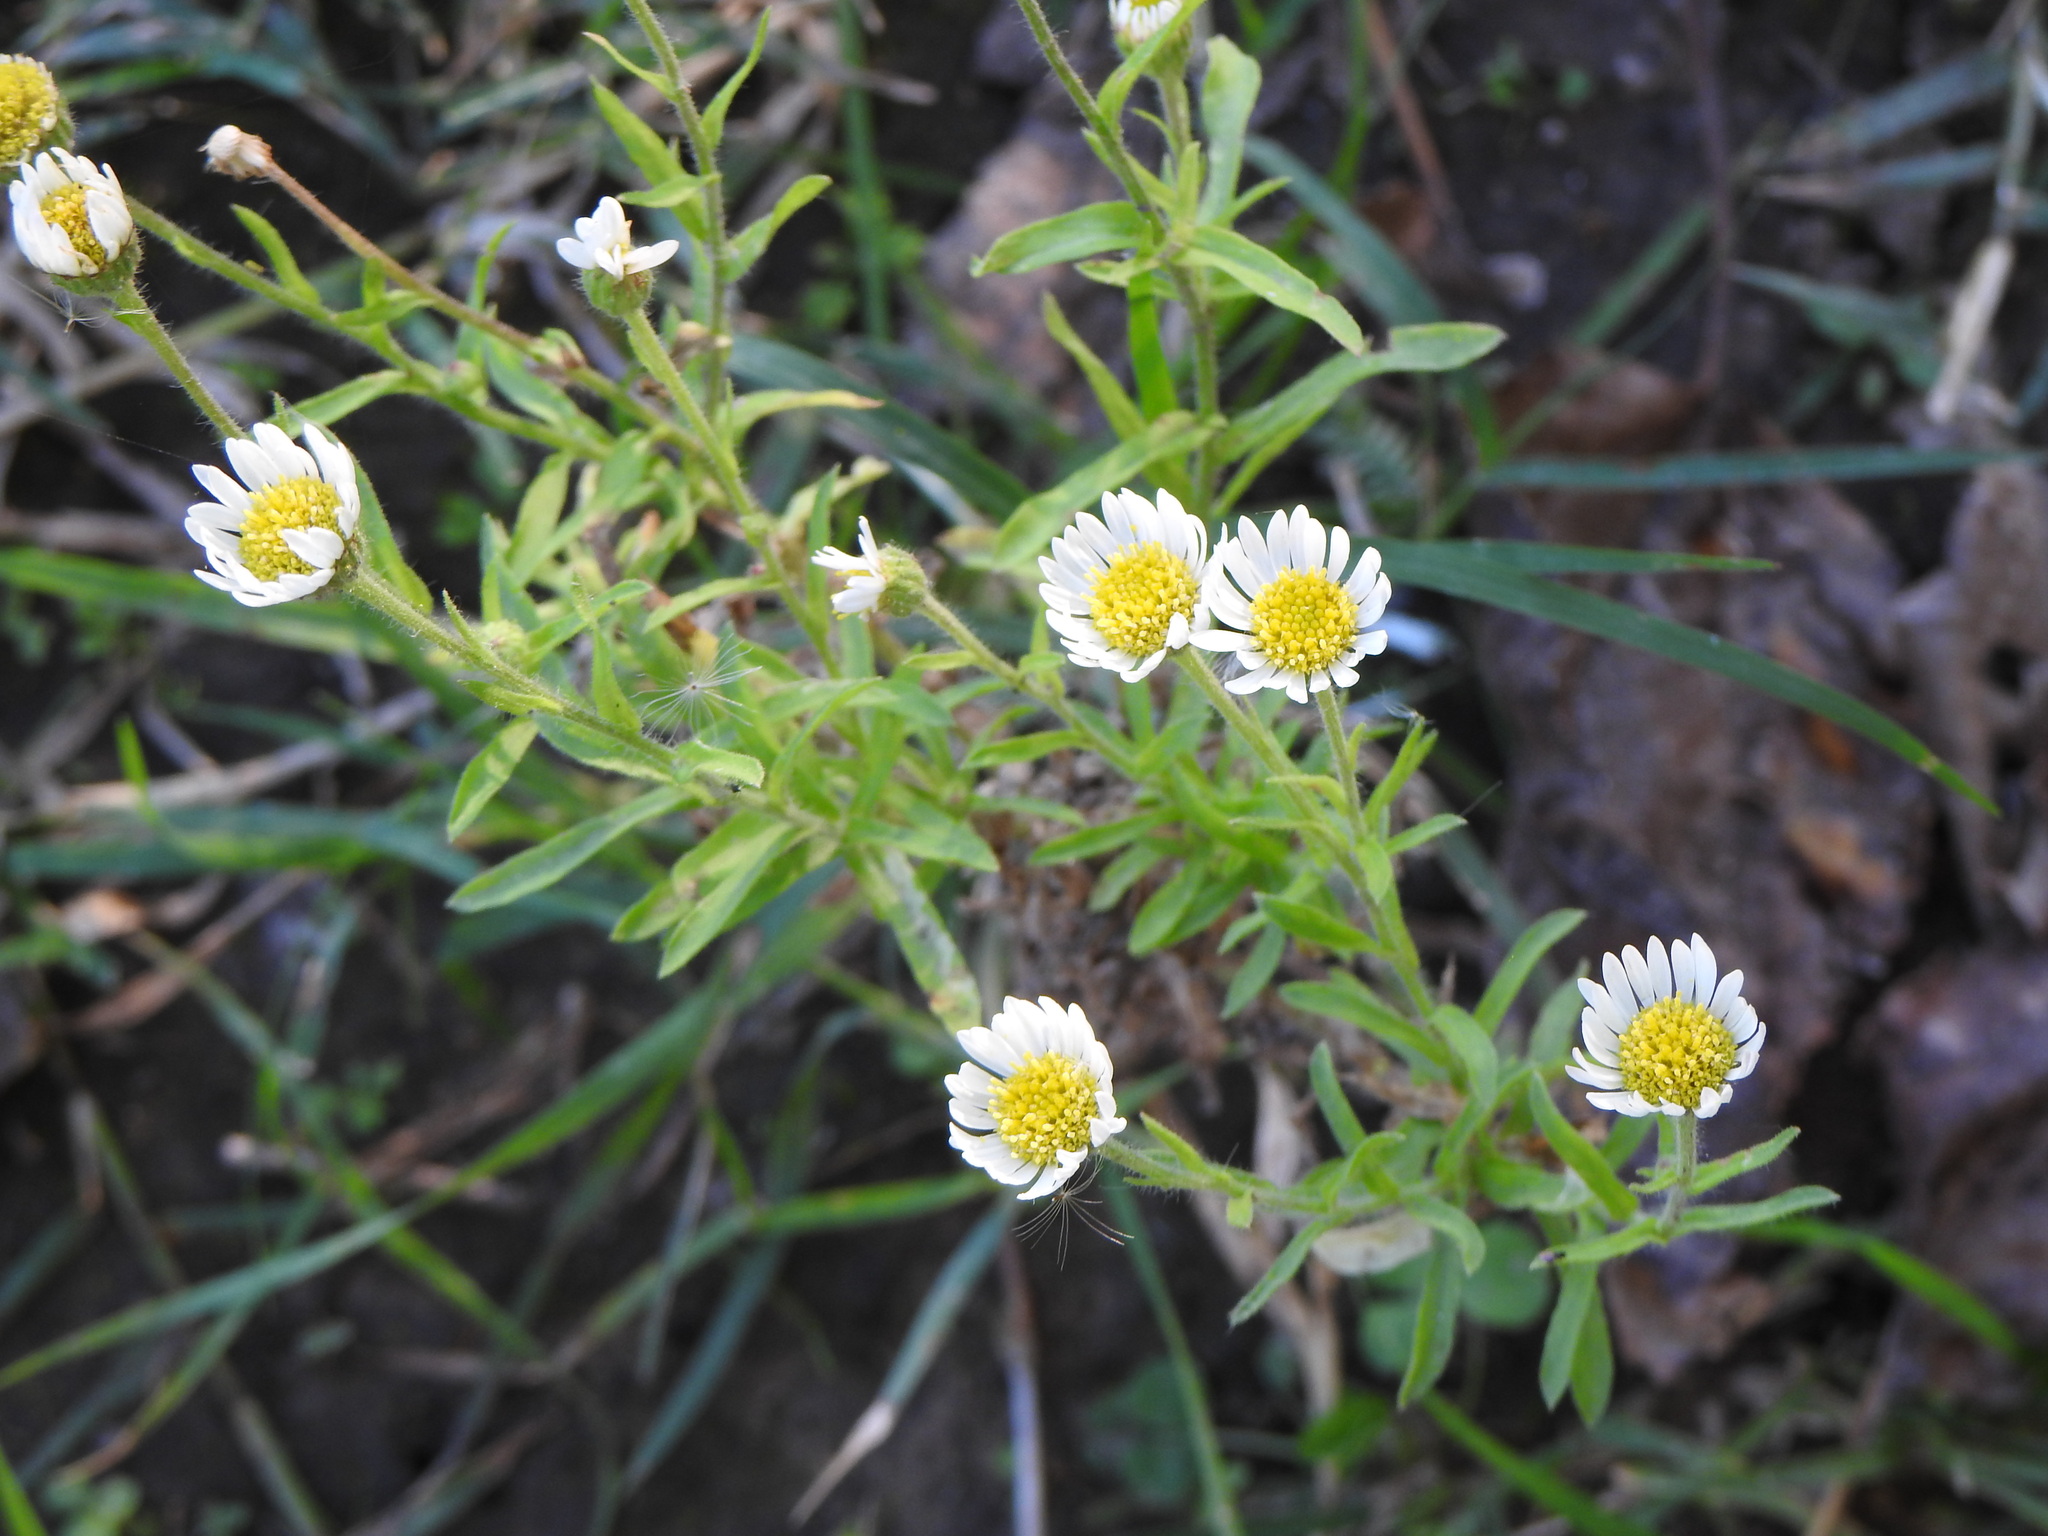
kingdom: Plantae
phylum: Tracheophyta
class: Magnoliopsida
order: Asterales
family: Asteraceae
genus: Hysterionica
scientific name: Hysterionica resinosa
